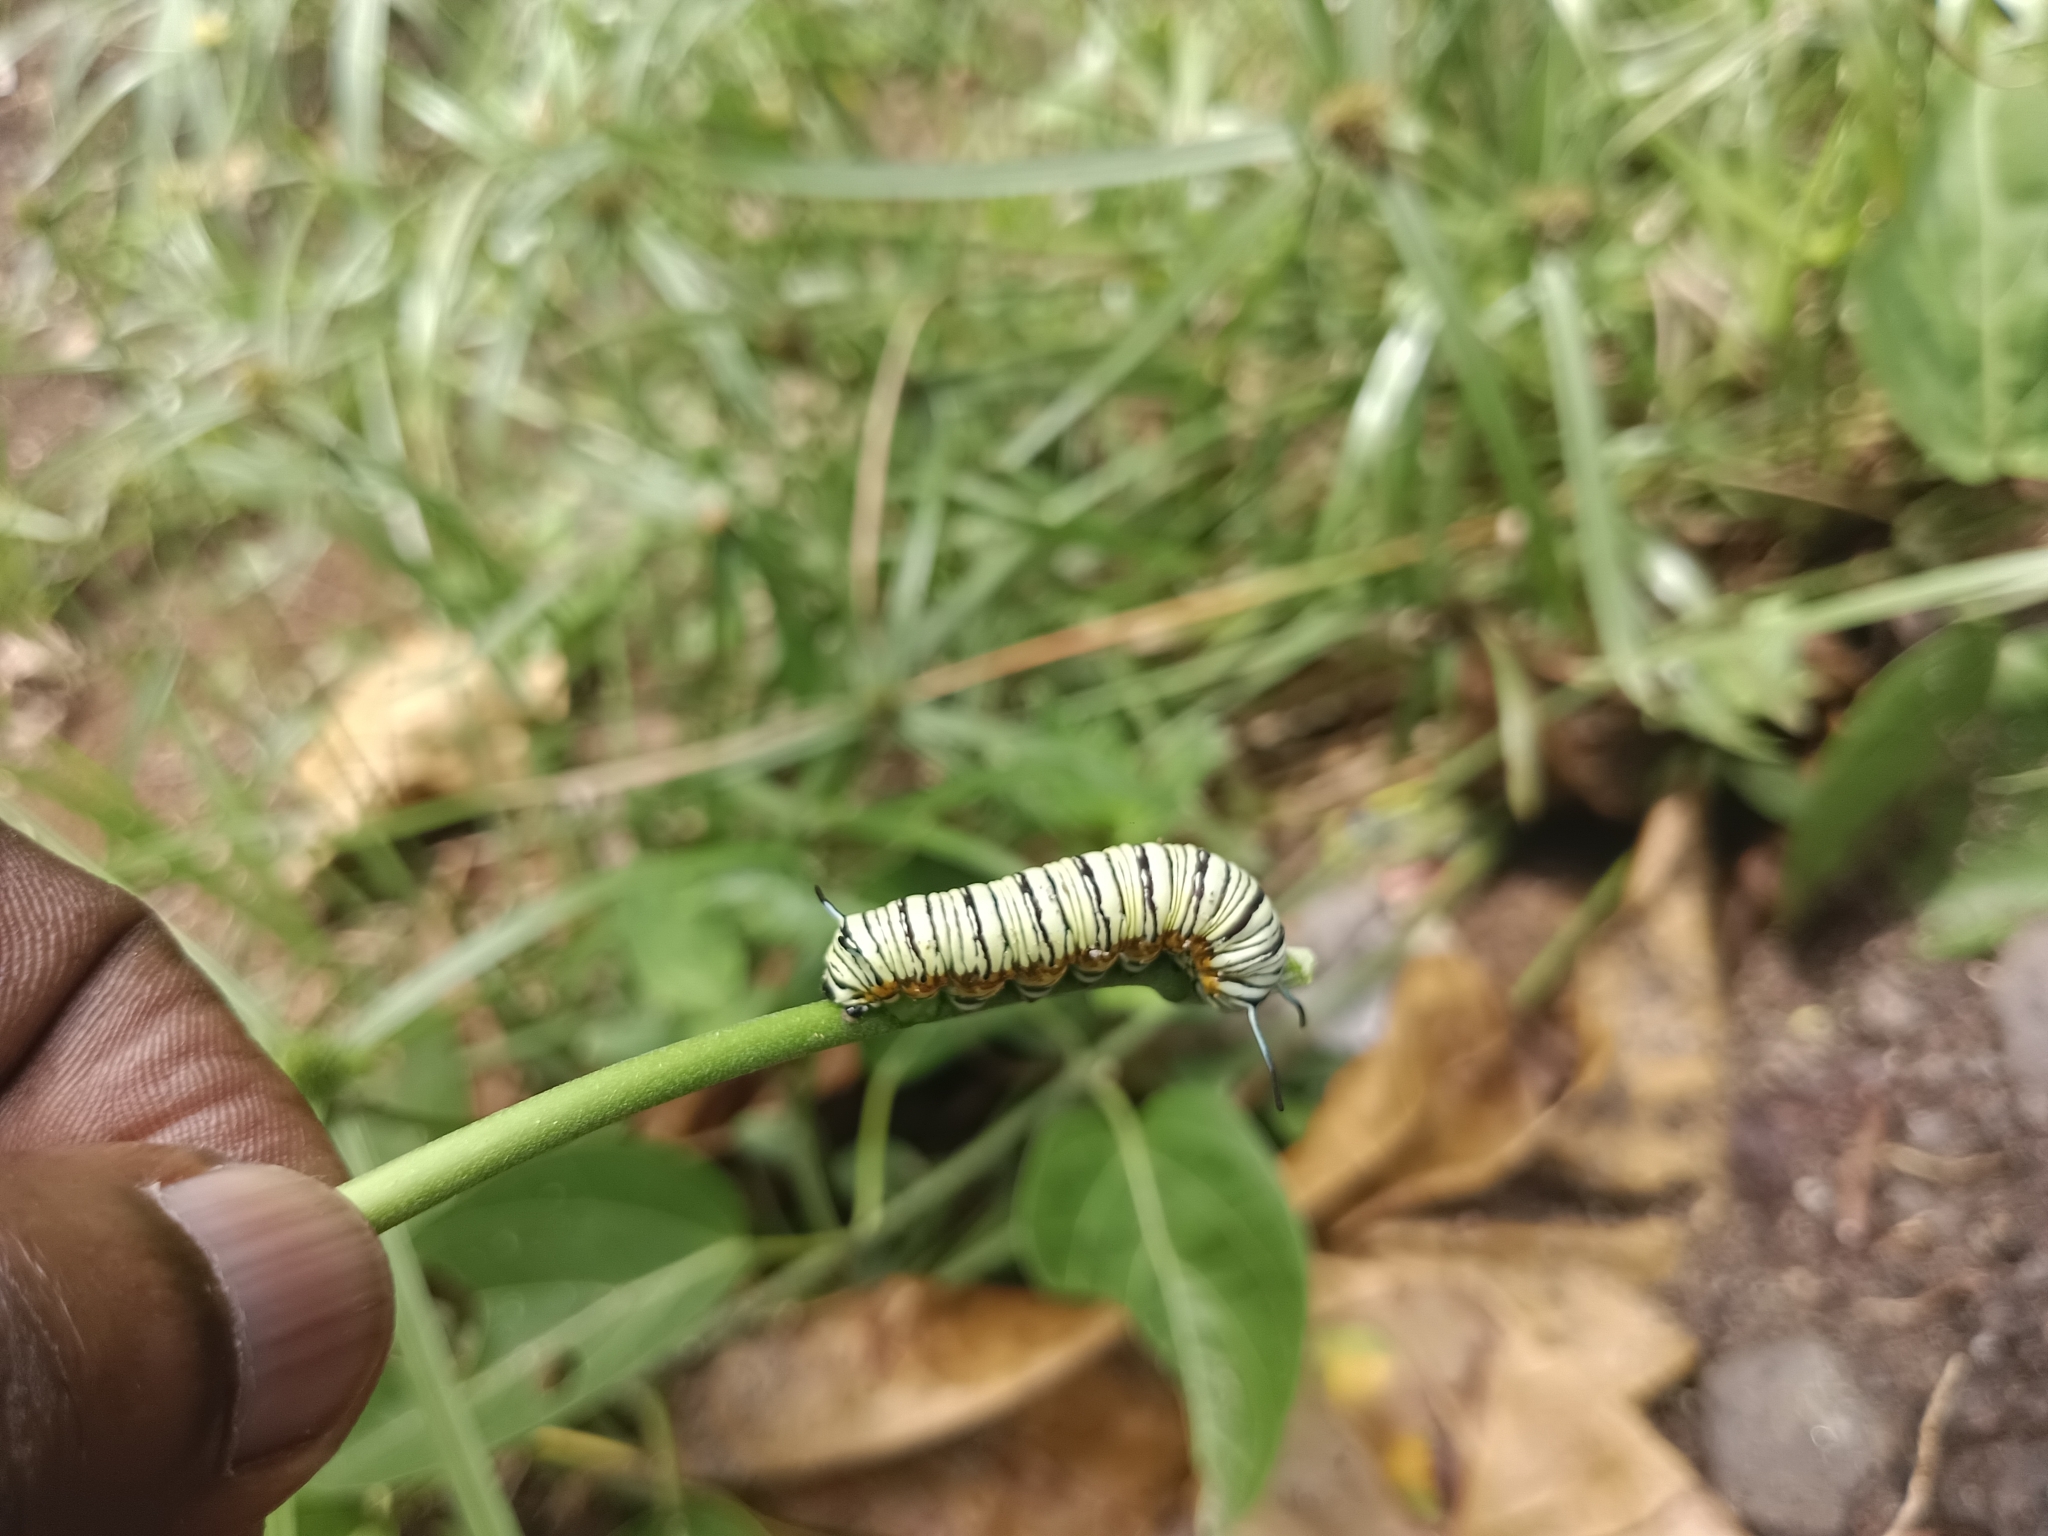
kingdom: Animalia
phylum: Arthropoda
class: Insecta
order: Lepidoptera
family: Nymphalidae
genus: Tirumala
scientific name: Tirumala limniace
